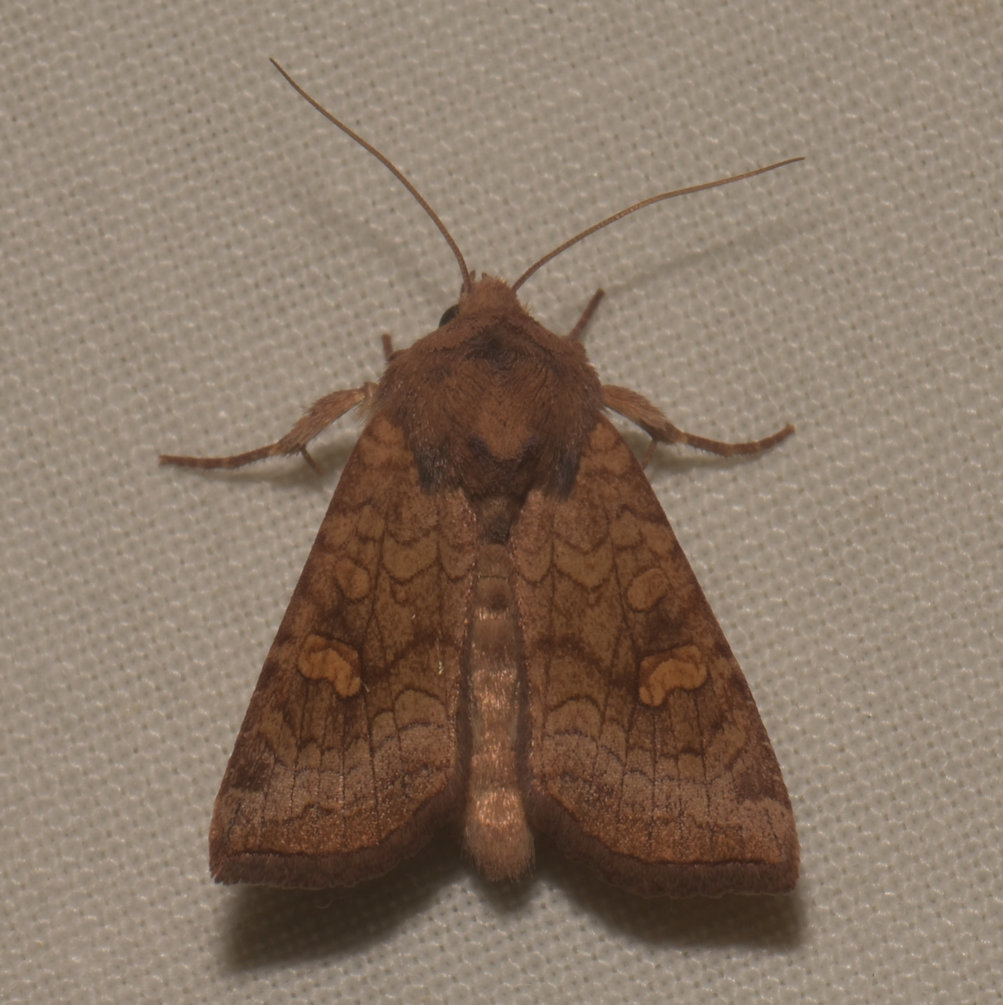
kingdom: Animalia
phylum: Arthropoda
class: Insecta
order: Lepidoptera
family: Noctuidae
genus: Nephelodes
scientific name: Nephelodes minians
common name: Bronzed cutworm
